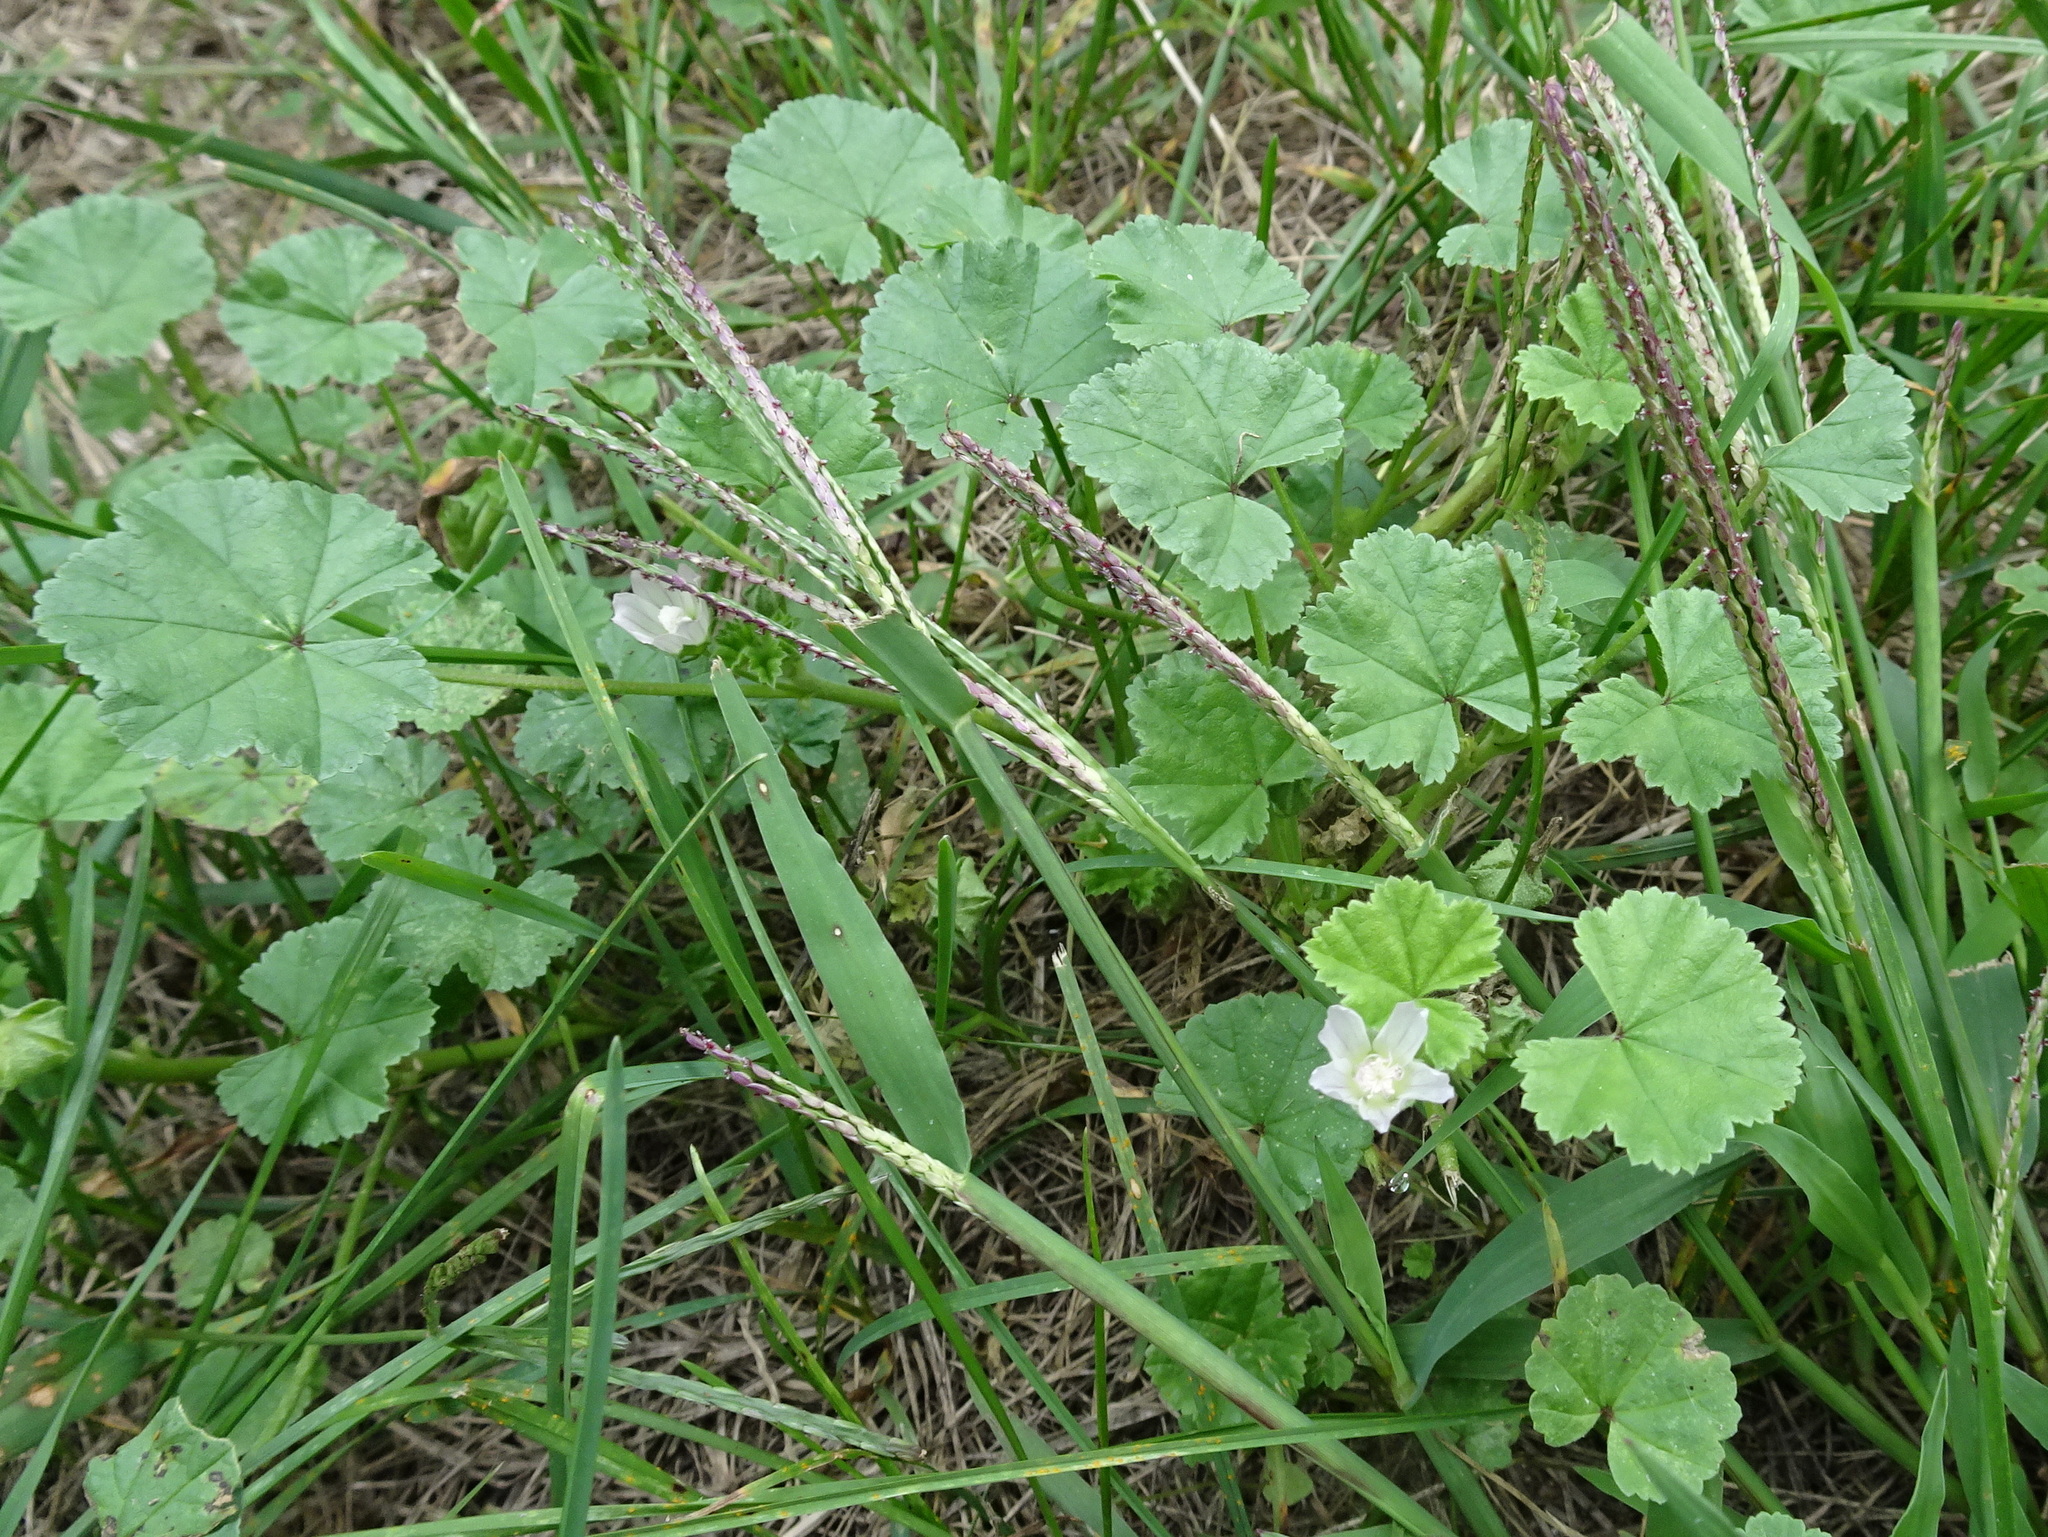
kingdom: Plantae
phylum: Tracheophyta
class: Magnoliopsida
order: Malvales
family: Malvaceae
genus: Malva
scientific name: Malva neglecta
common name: Common mallow
